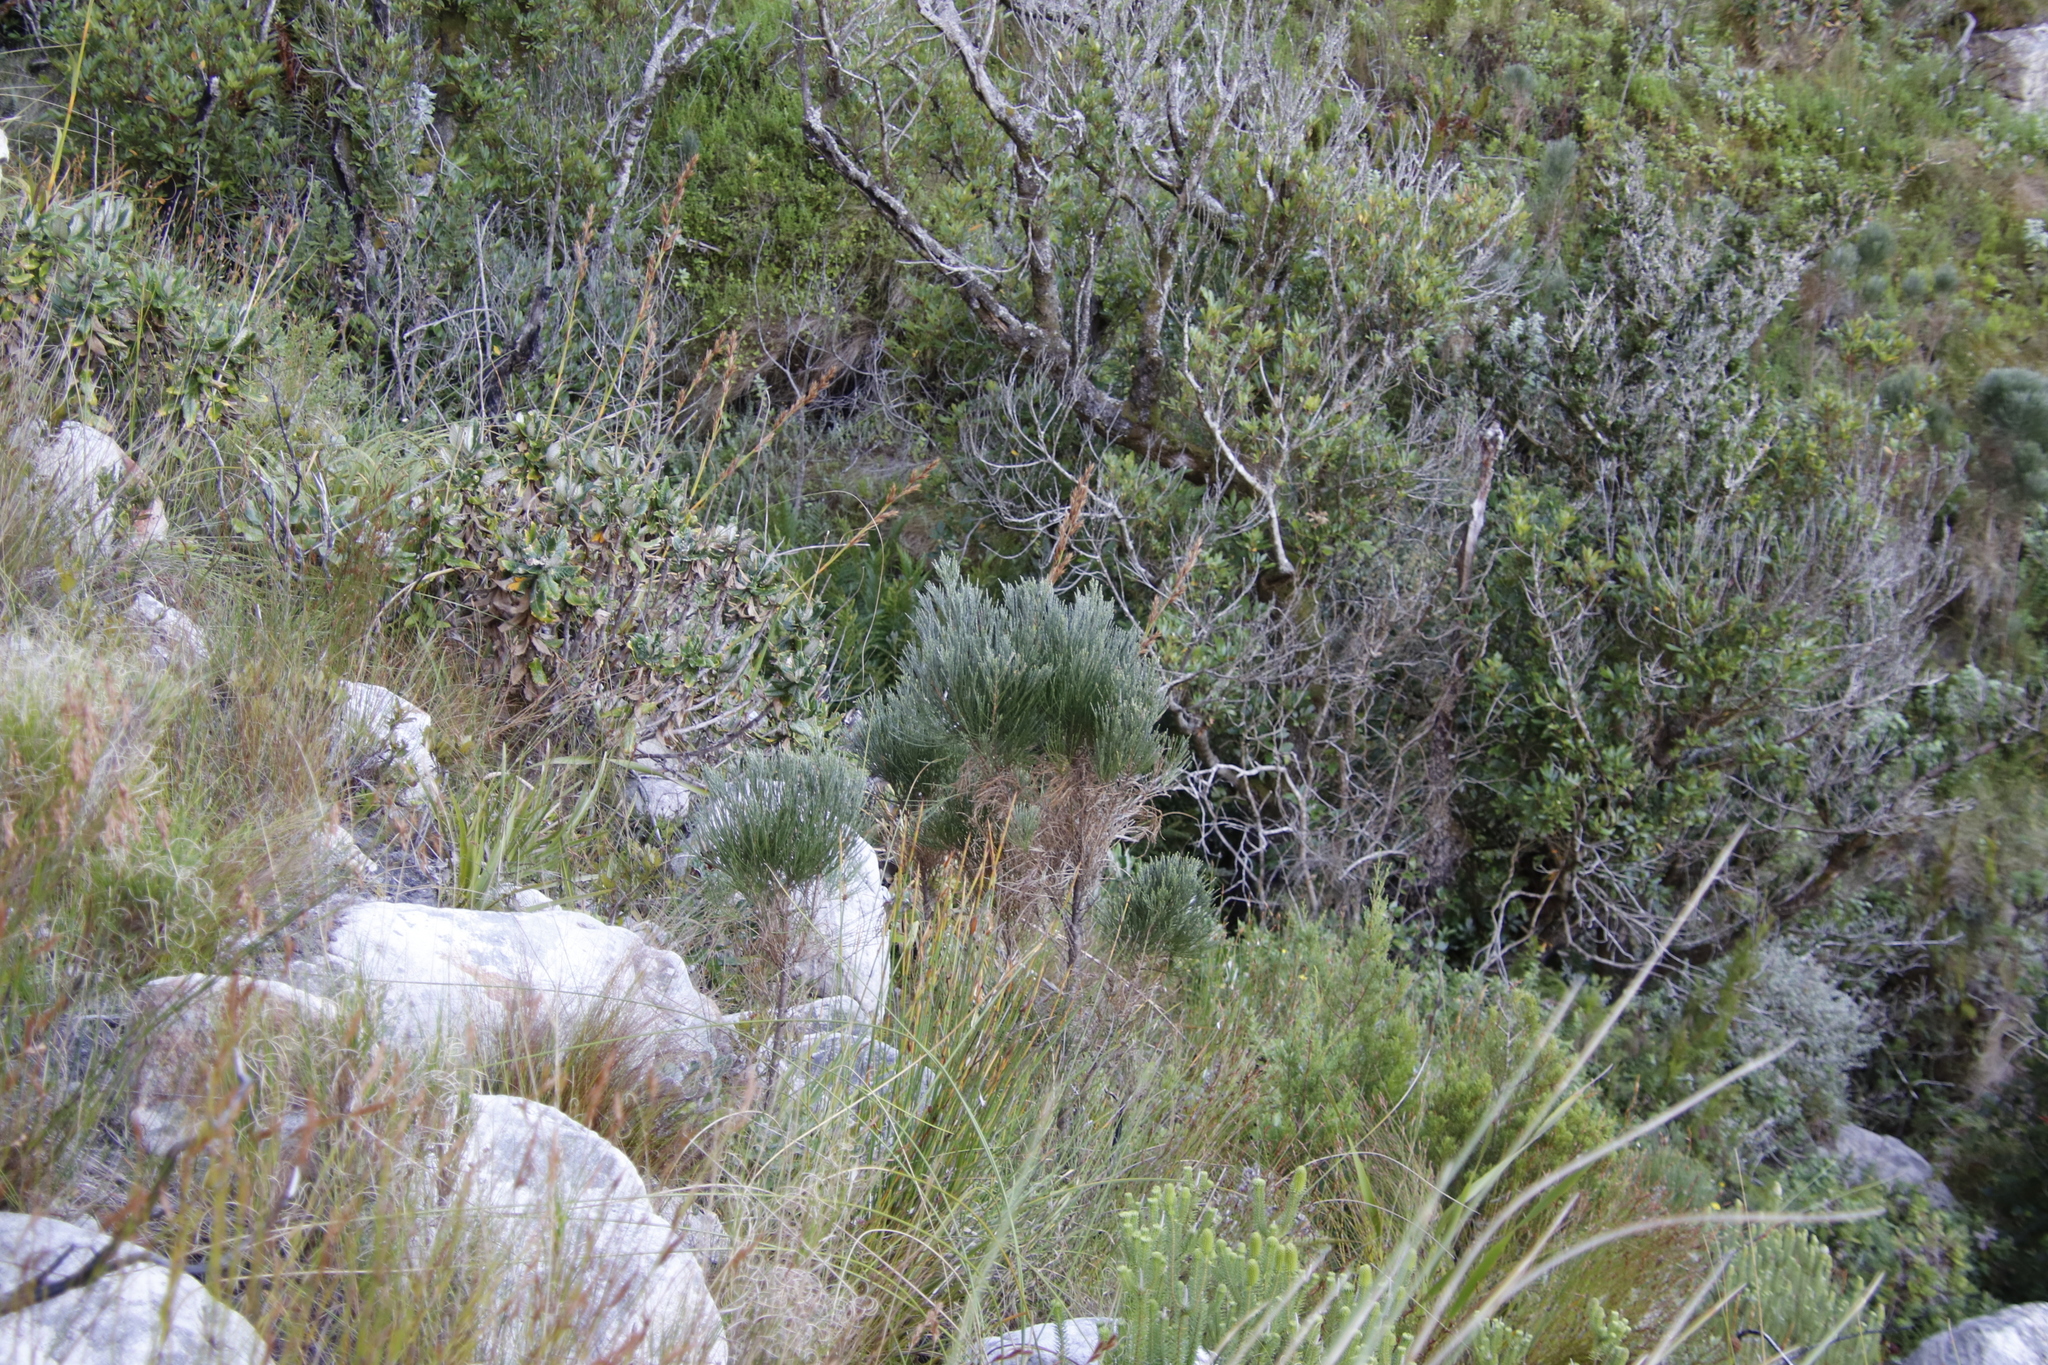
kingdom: Plantae
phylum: Tracheophyta
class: Magnoliopsida
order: Fabales
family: Fabaceae
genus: Psoralea
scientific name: Psoralea congesta
